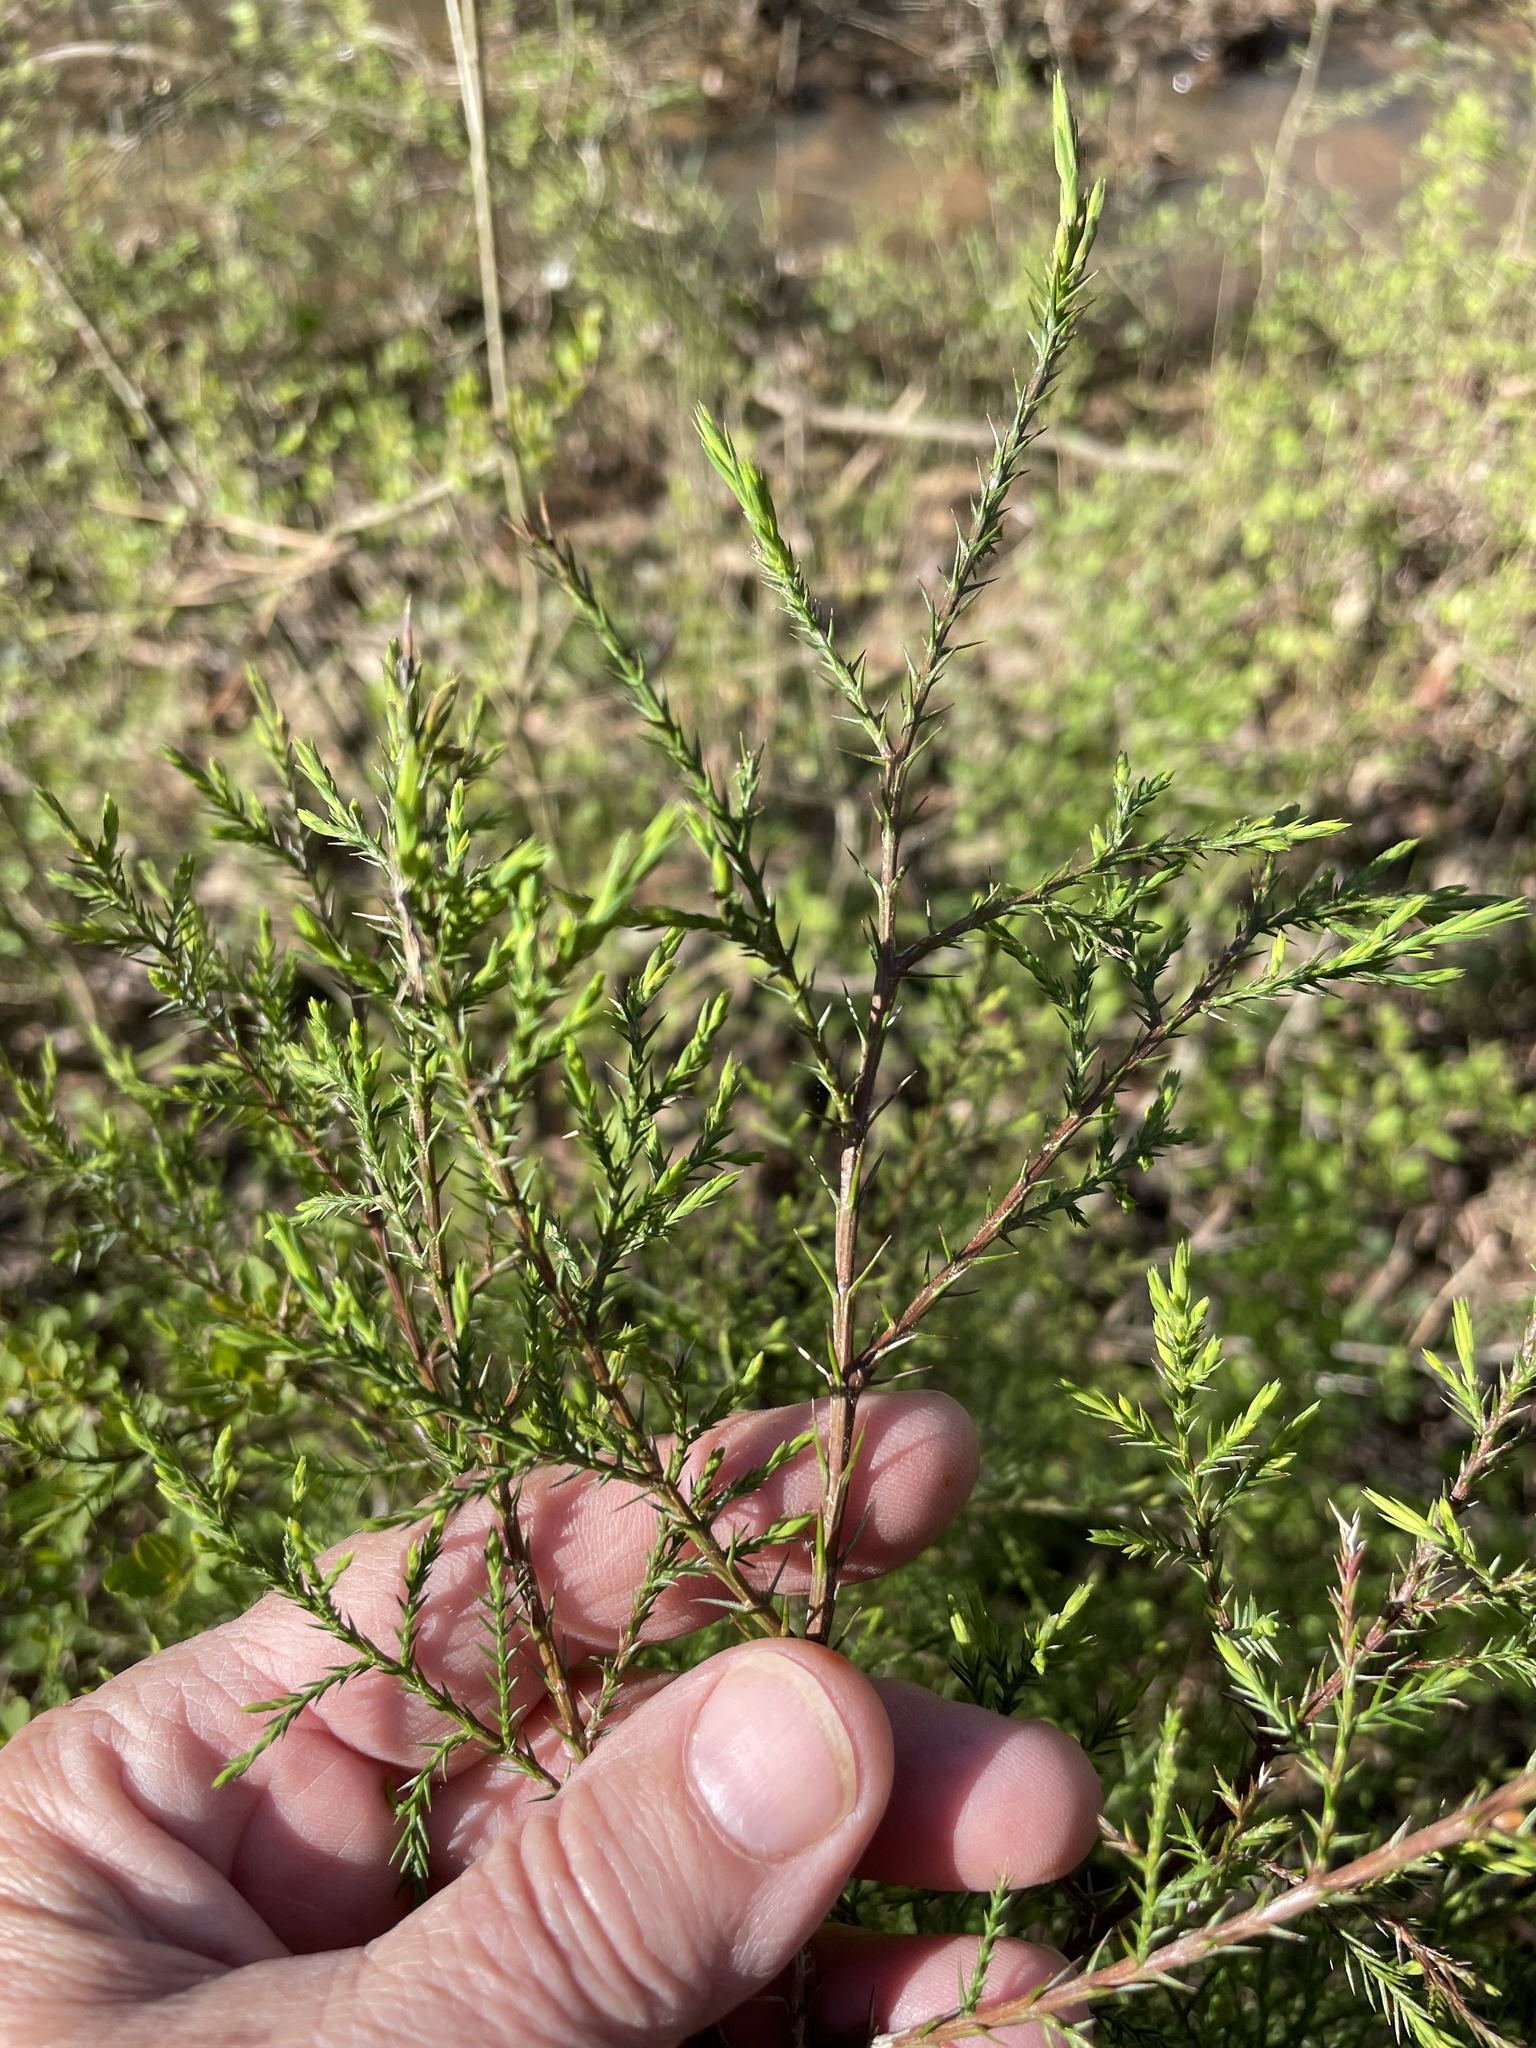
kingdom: Plantae
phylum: Tracheophyta
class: Pinopsida
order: Pinales
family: Cupressaceae
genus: Juniperus
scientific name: Juniperus virginiana
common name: Red juniper
